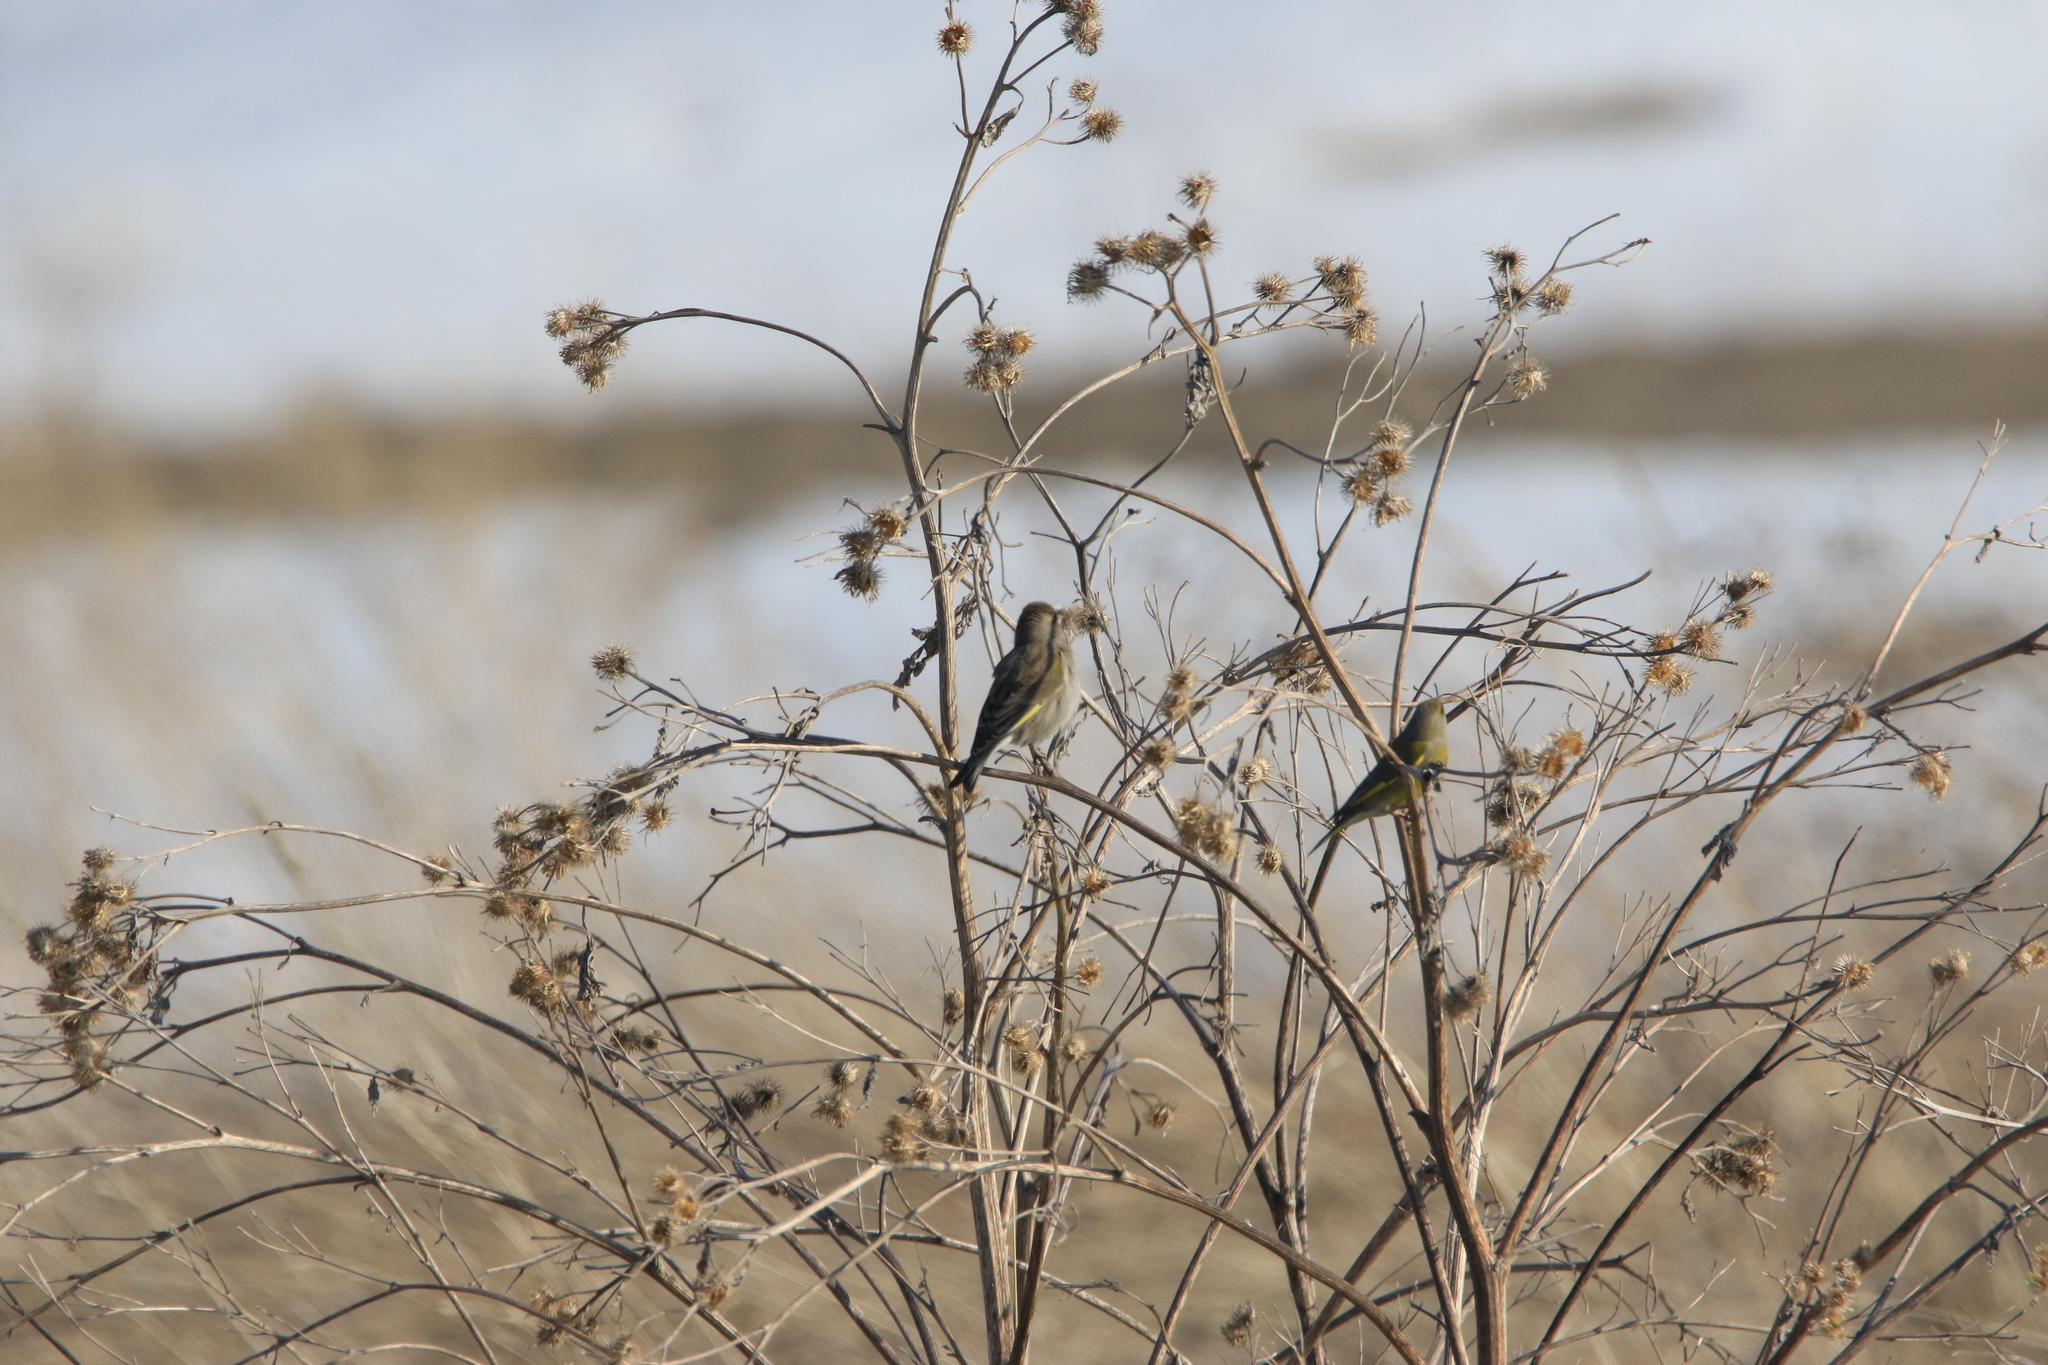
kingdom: Plantae
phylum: Tracheophyta
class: Liliopsida
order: Poales
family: Poaceae
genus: Chloris
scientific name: Chloris chloris
